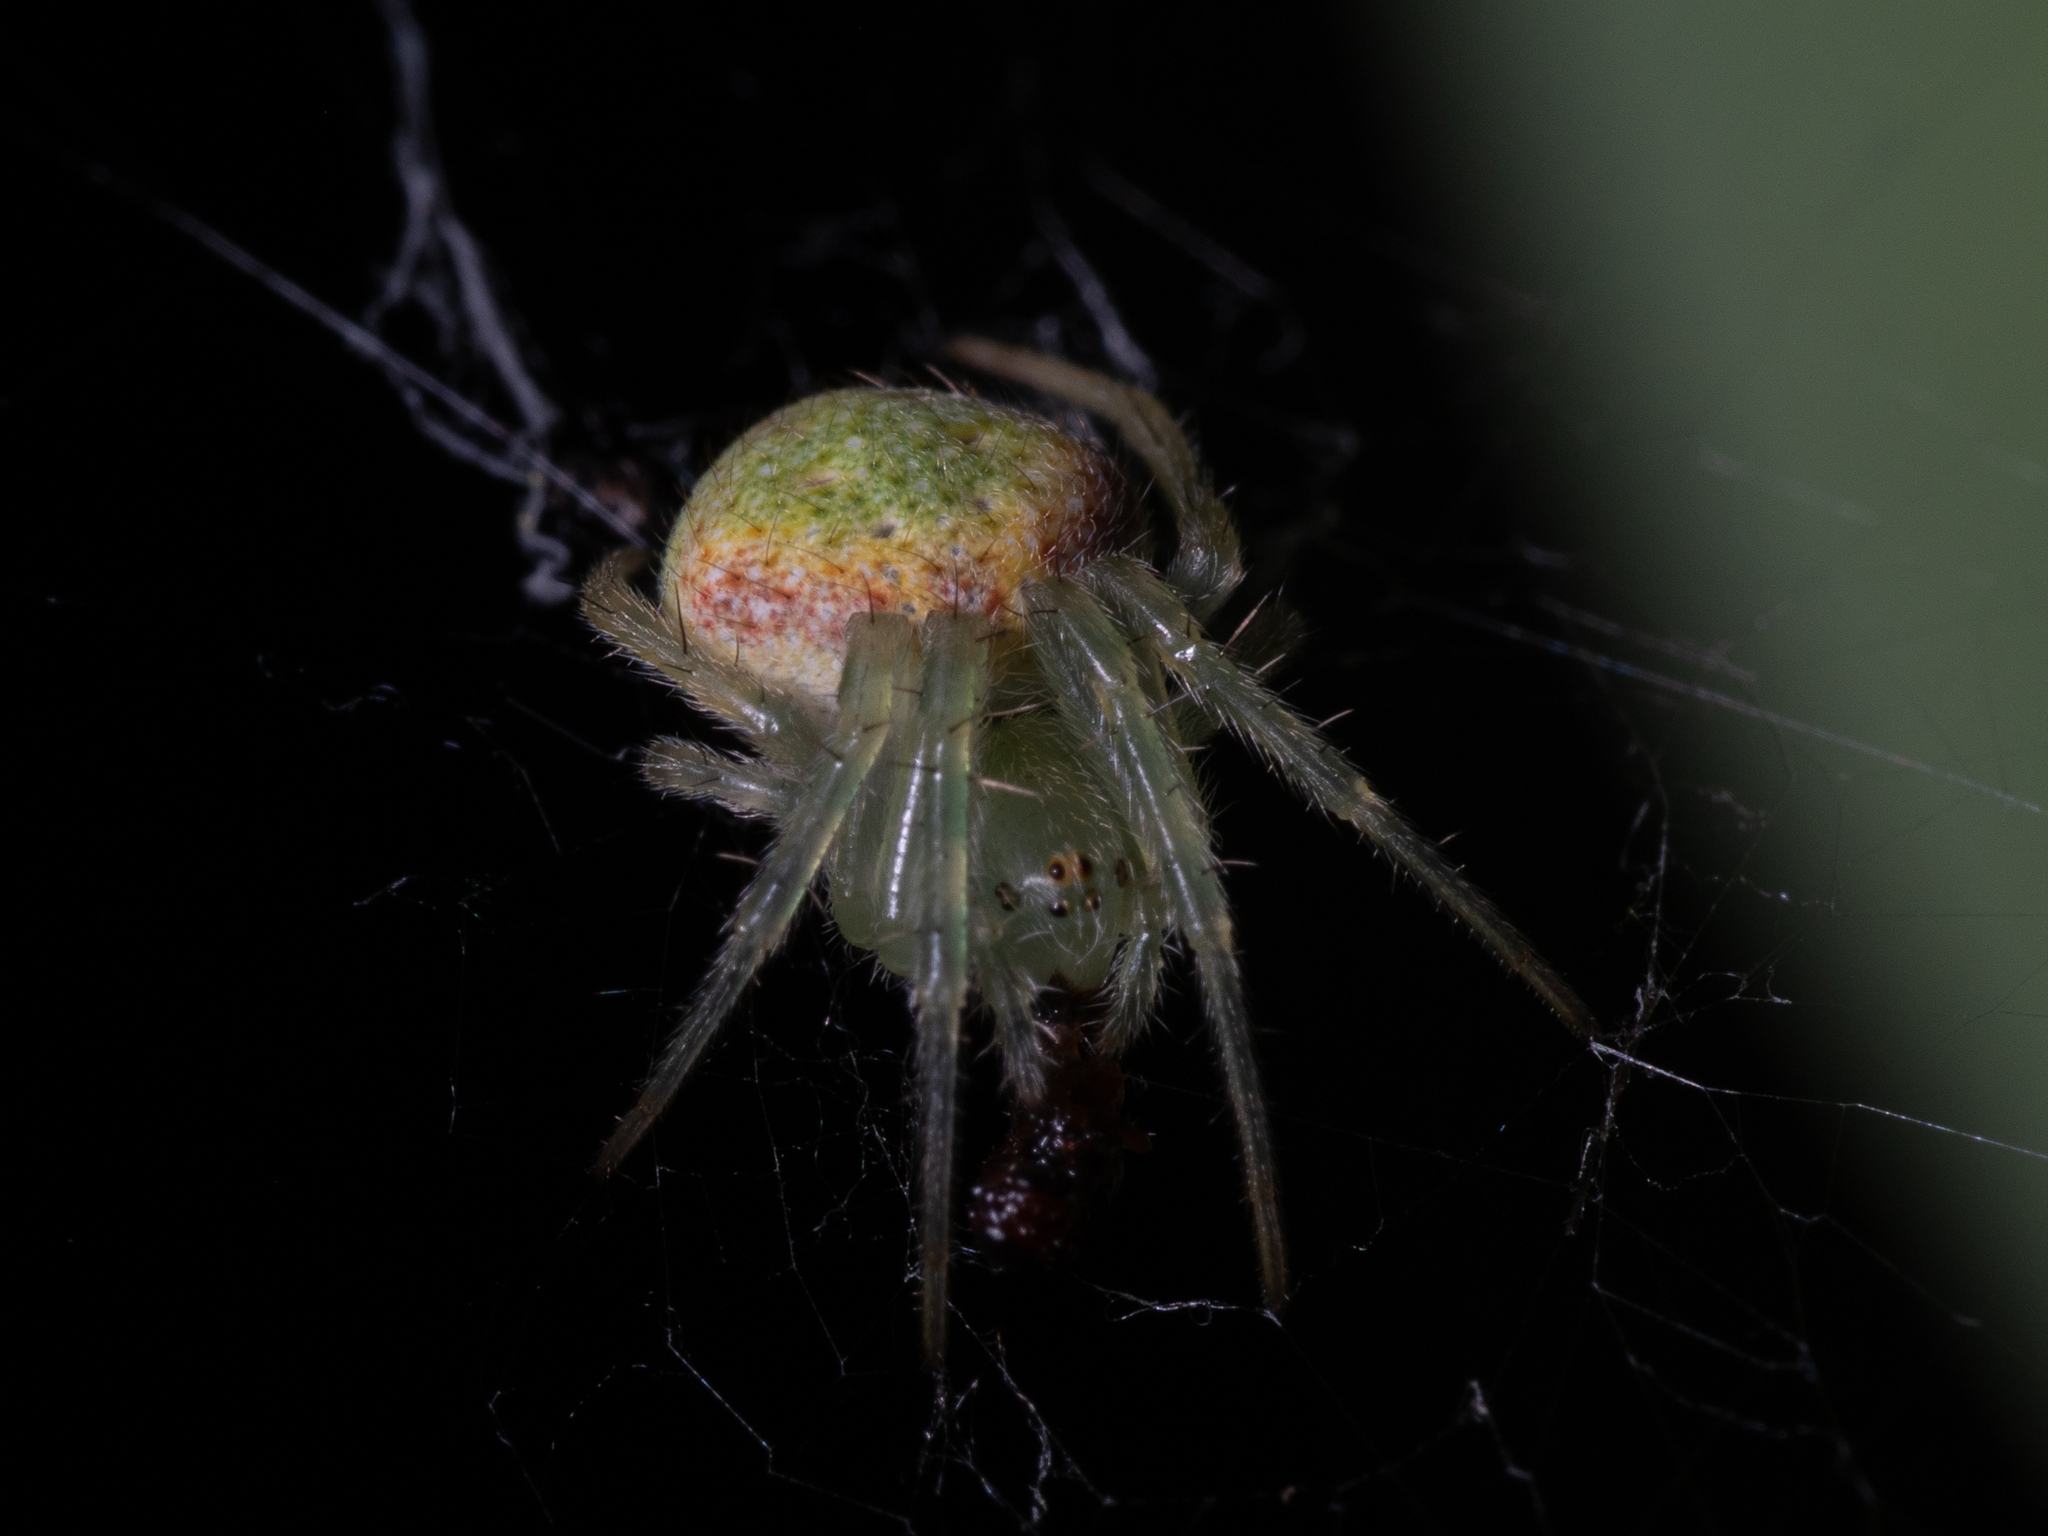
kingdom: Animalia
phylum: Arthropoda
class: Arachnida
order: Araneae
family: Araneidae
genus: Araneus
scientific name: Araneus circulissparsus
